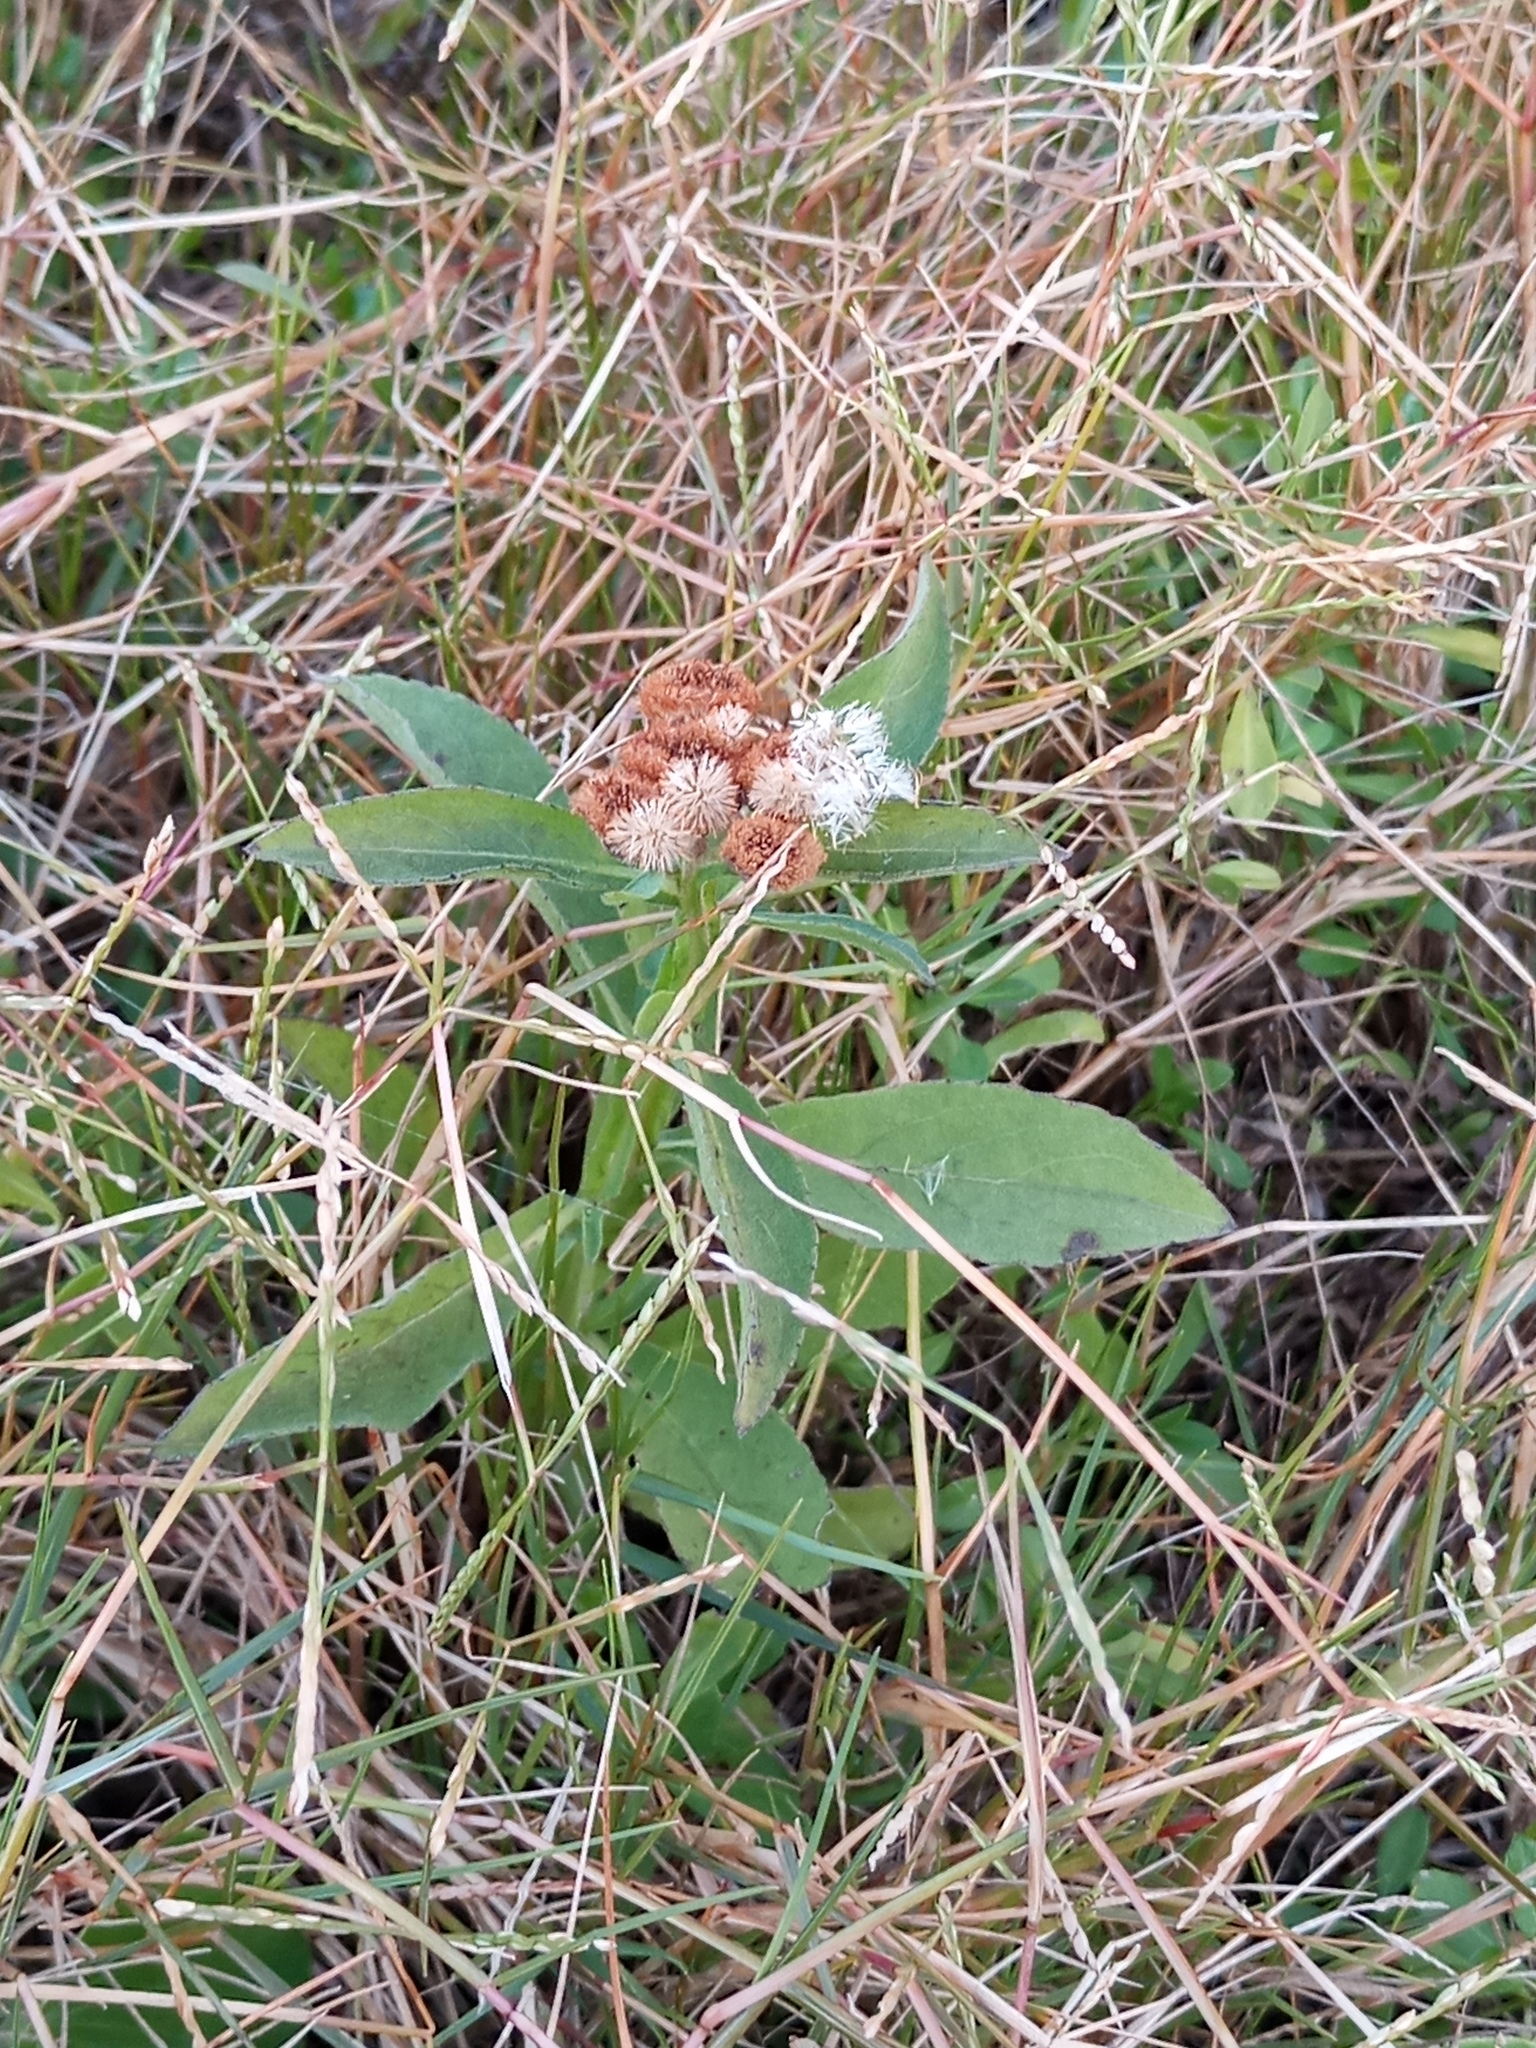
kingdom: Plantae
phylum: Tracheophyta
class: Magnoliopsida
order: Asterales
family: Asteraceae
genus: Pluchea
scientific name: Pluchea sagittalis
